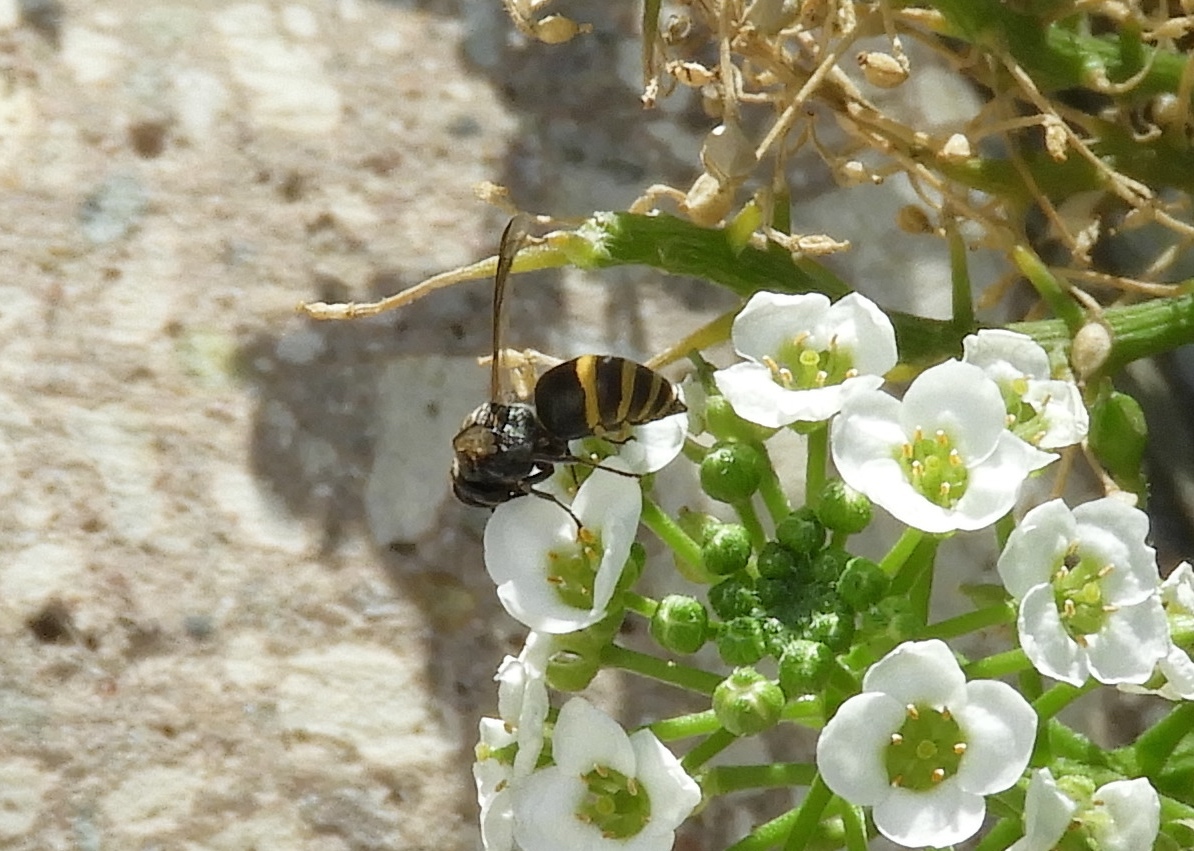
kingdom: Animalia
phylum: Arthropoda
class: Insecta
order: Hymenoptera
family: Vespidae
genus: Brachygastra
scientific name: Brachygastra azteca
